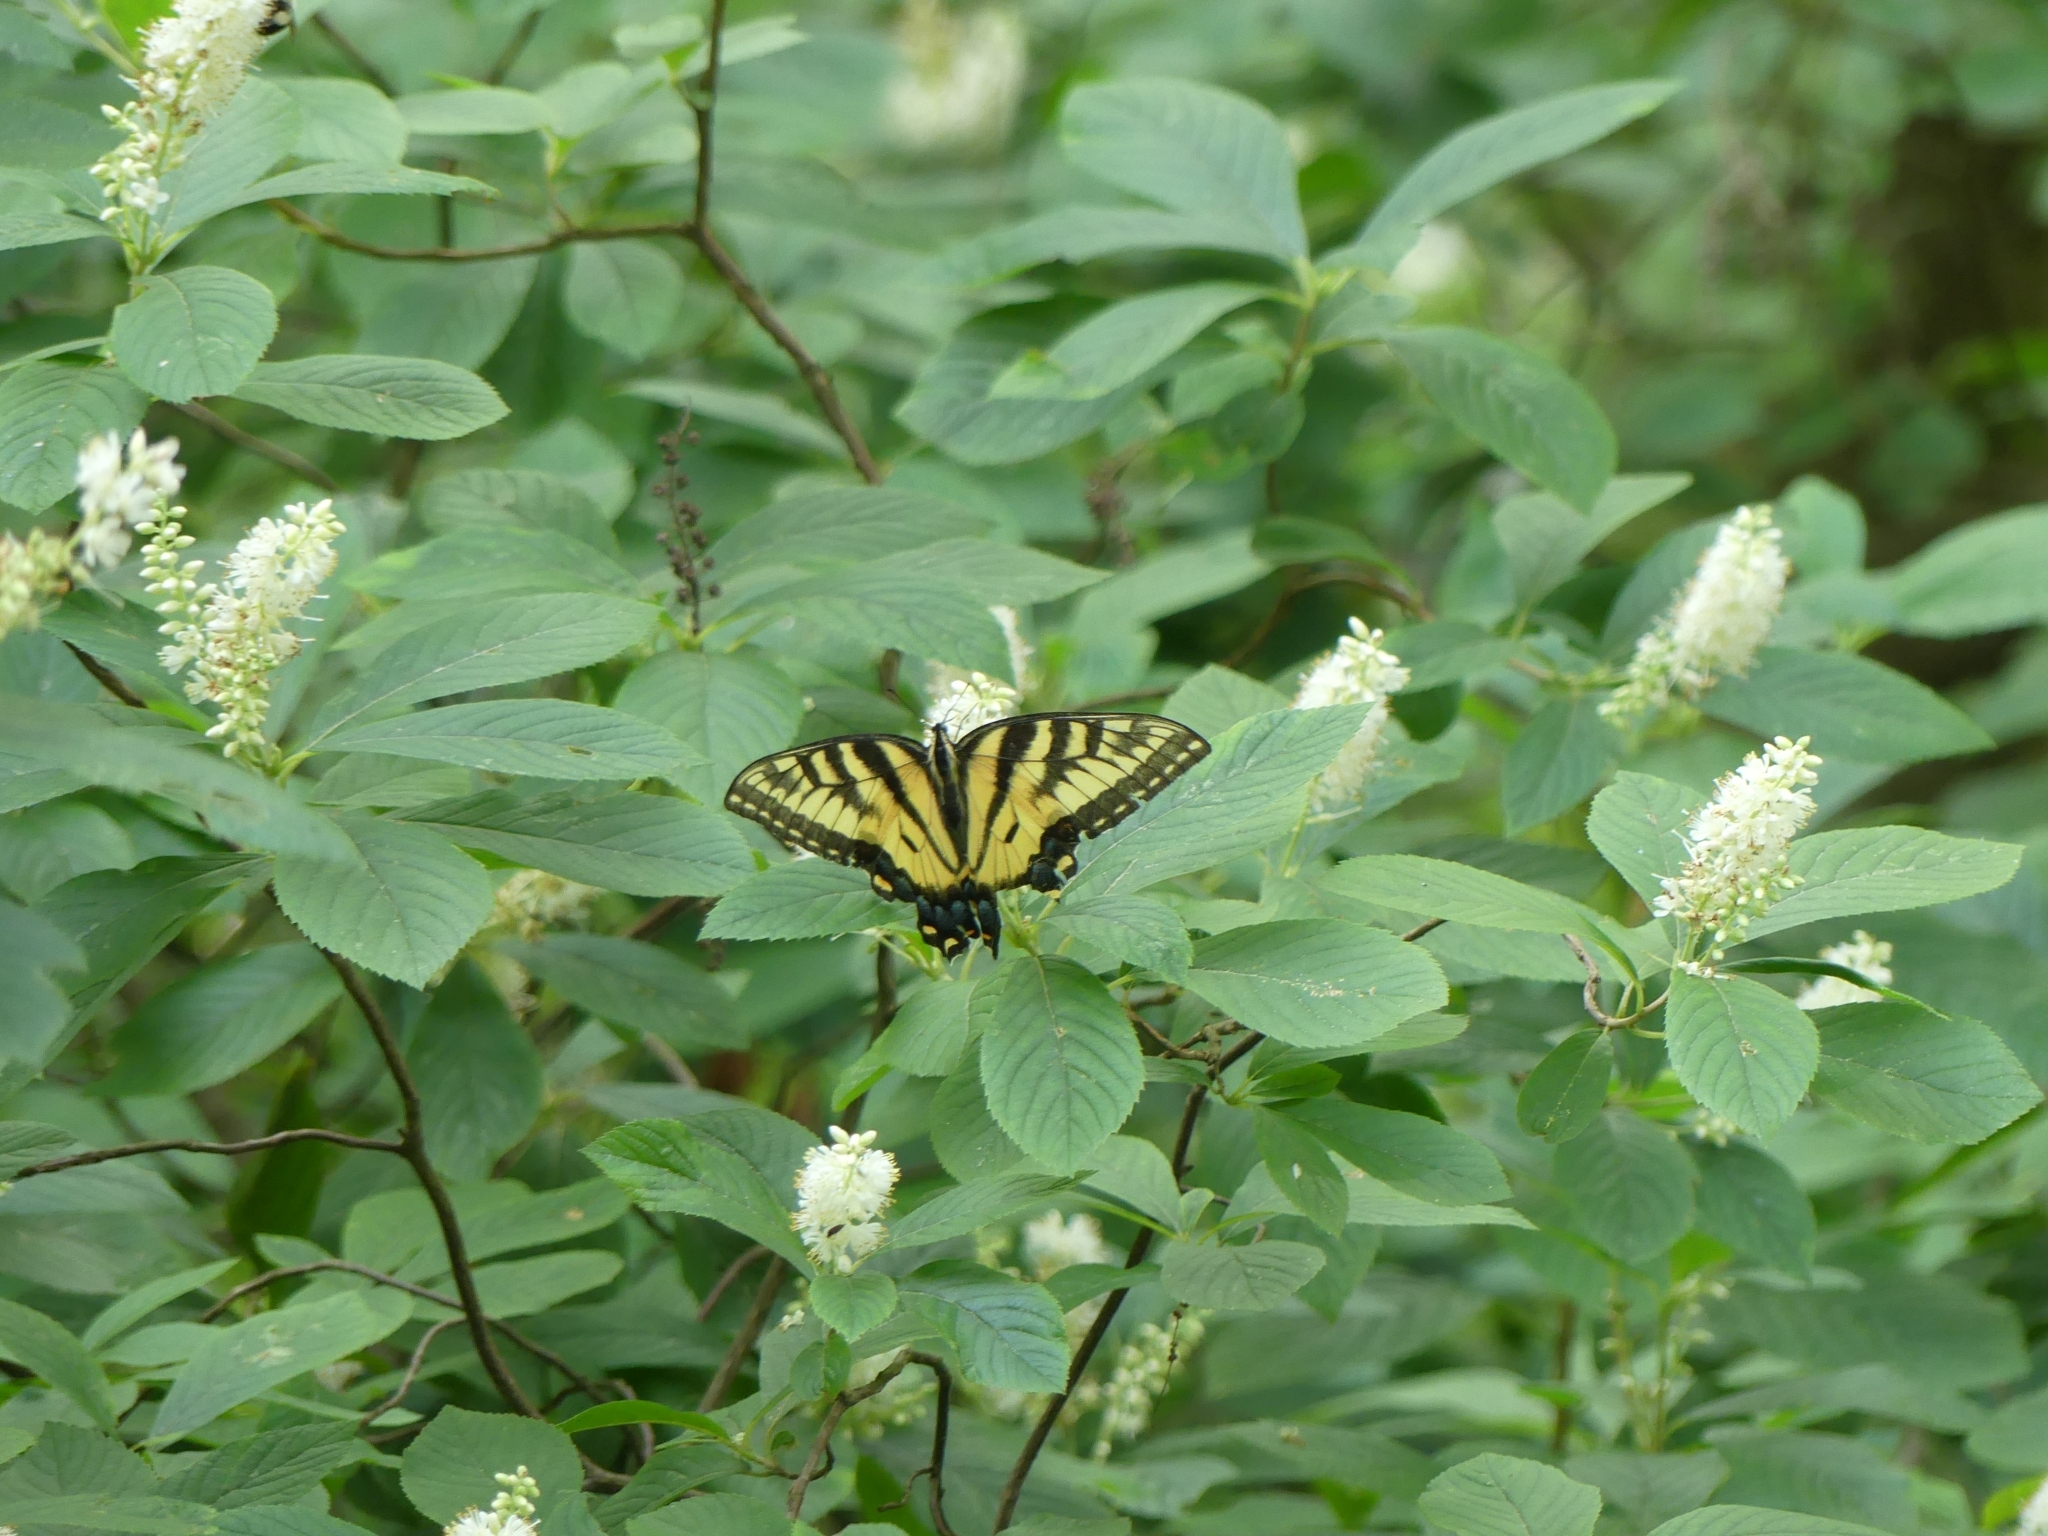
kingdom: Animalia
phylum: Arthropoda
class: Insecta
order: Lepidoptera
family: Papilionidae
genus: Papilio
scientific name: Papilio glaucus
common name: Tiger swallowtail
